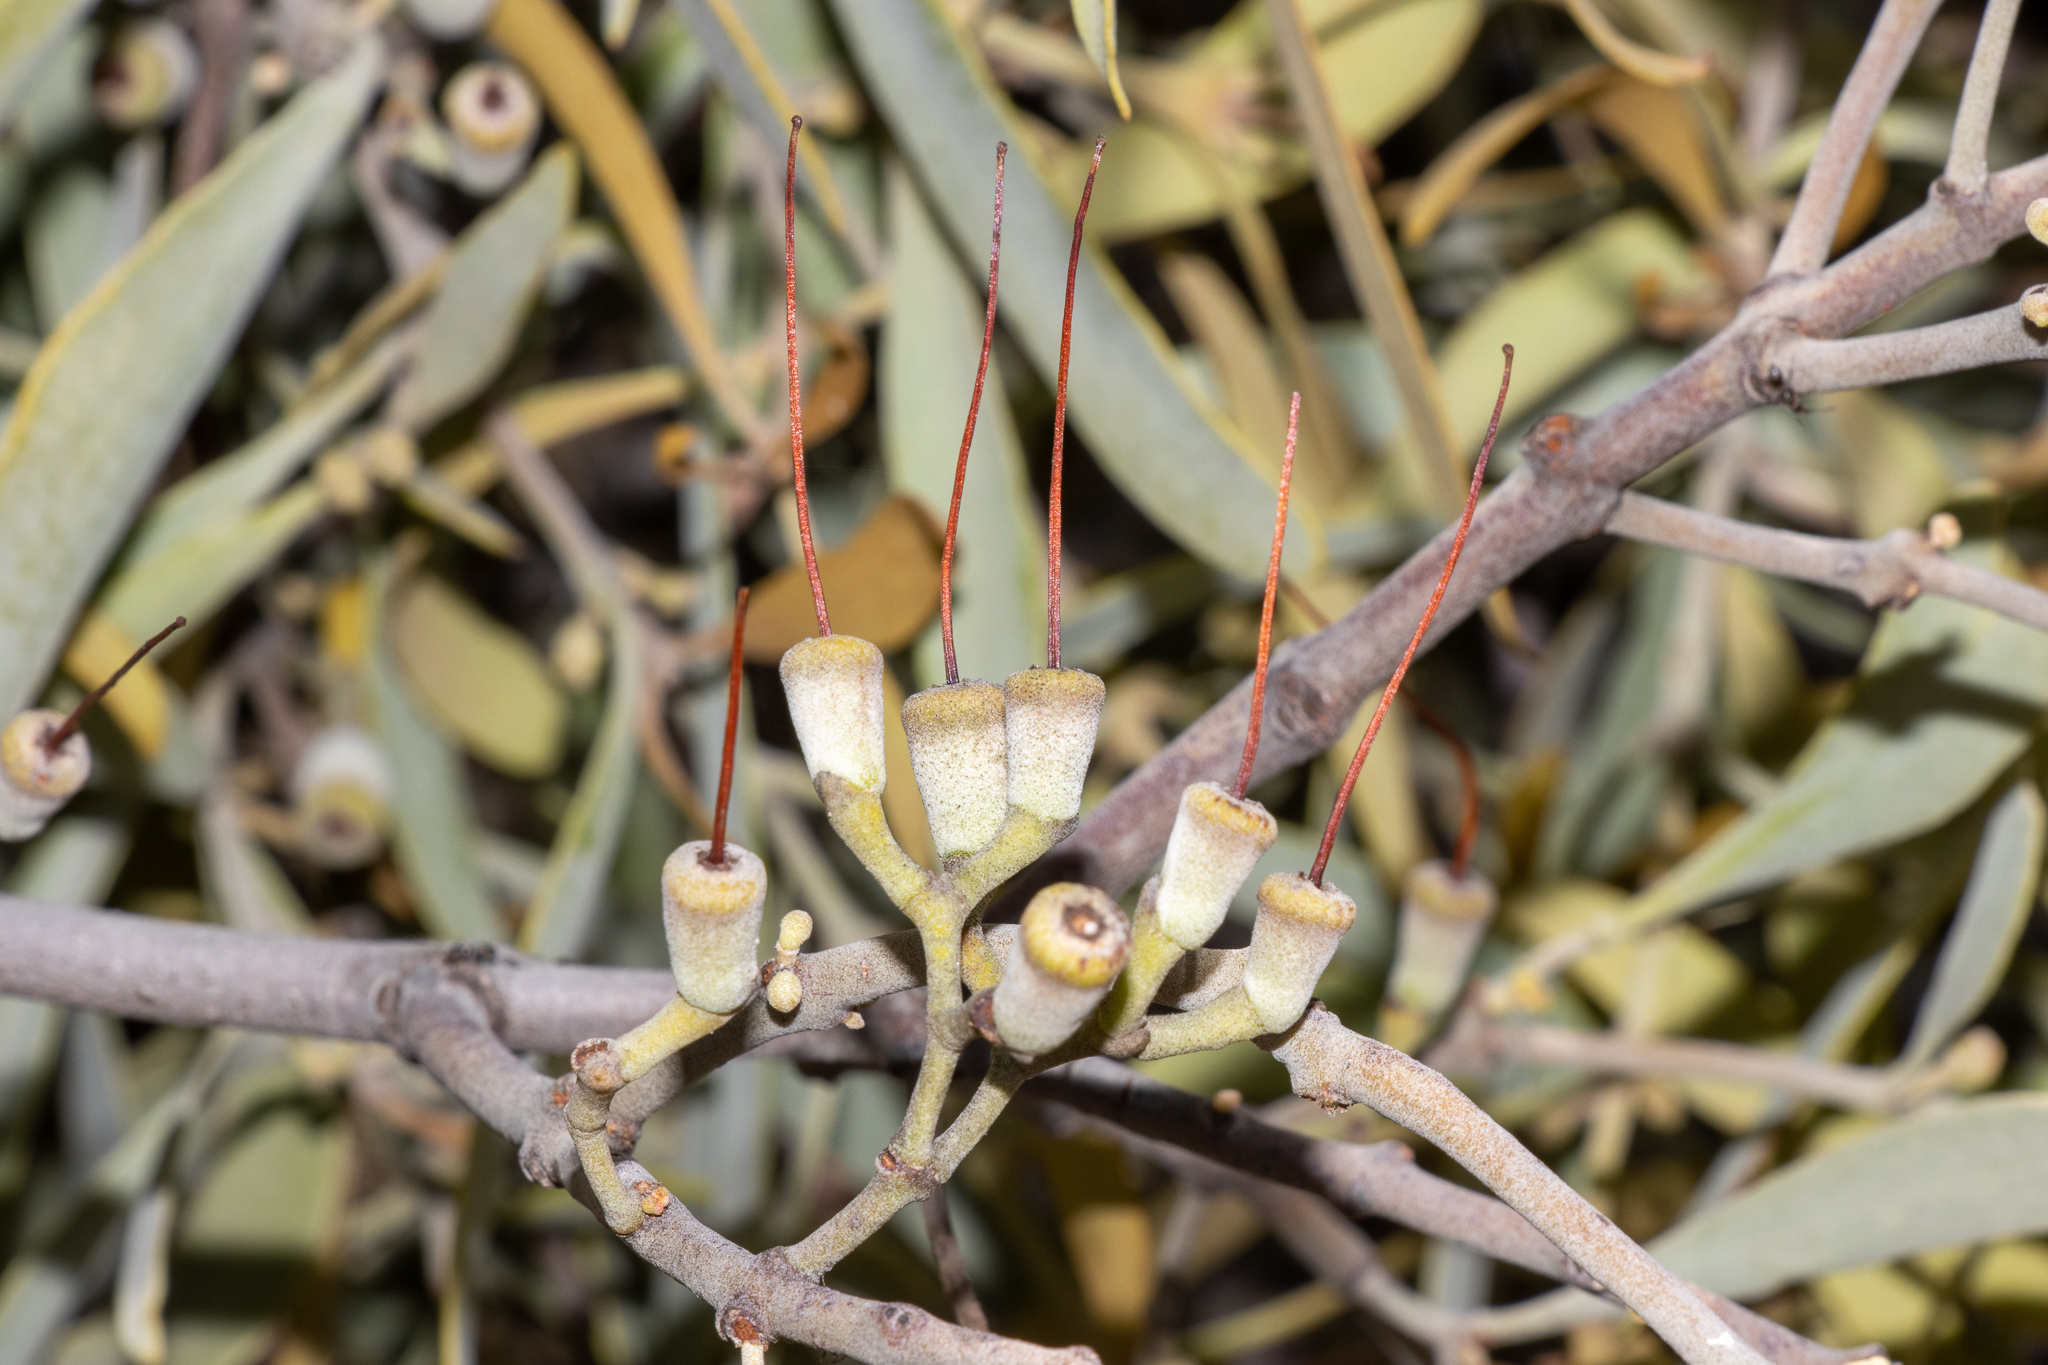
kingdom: Plantae
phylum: Tracheophyta
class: Magnoliopsida
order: Santalales
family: Loranthaceae
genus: Amyema
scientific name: Amyema quandang
